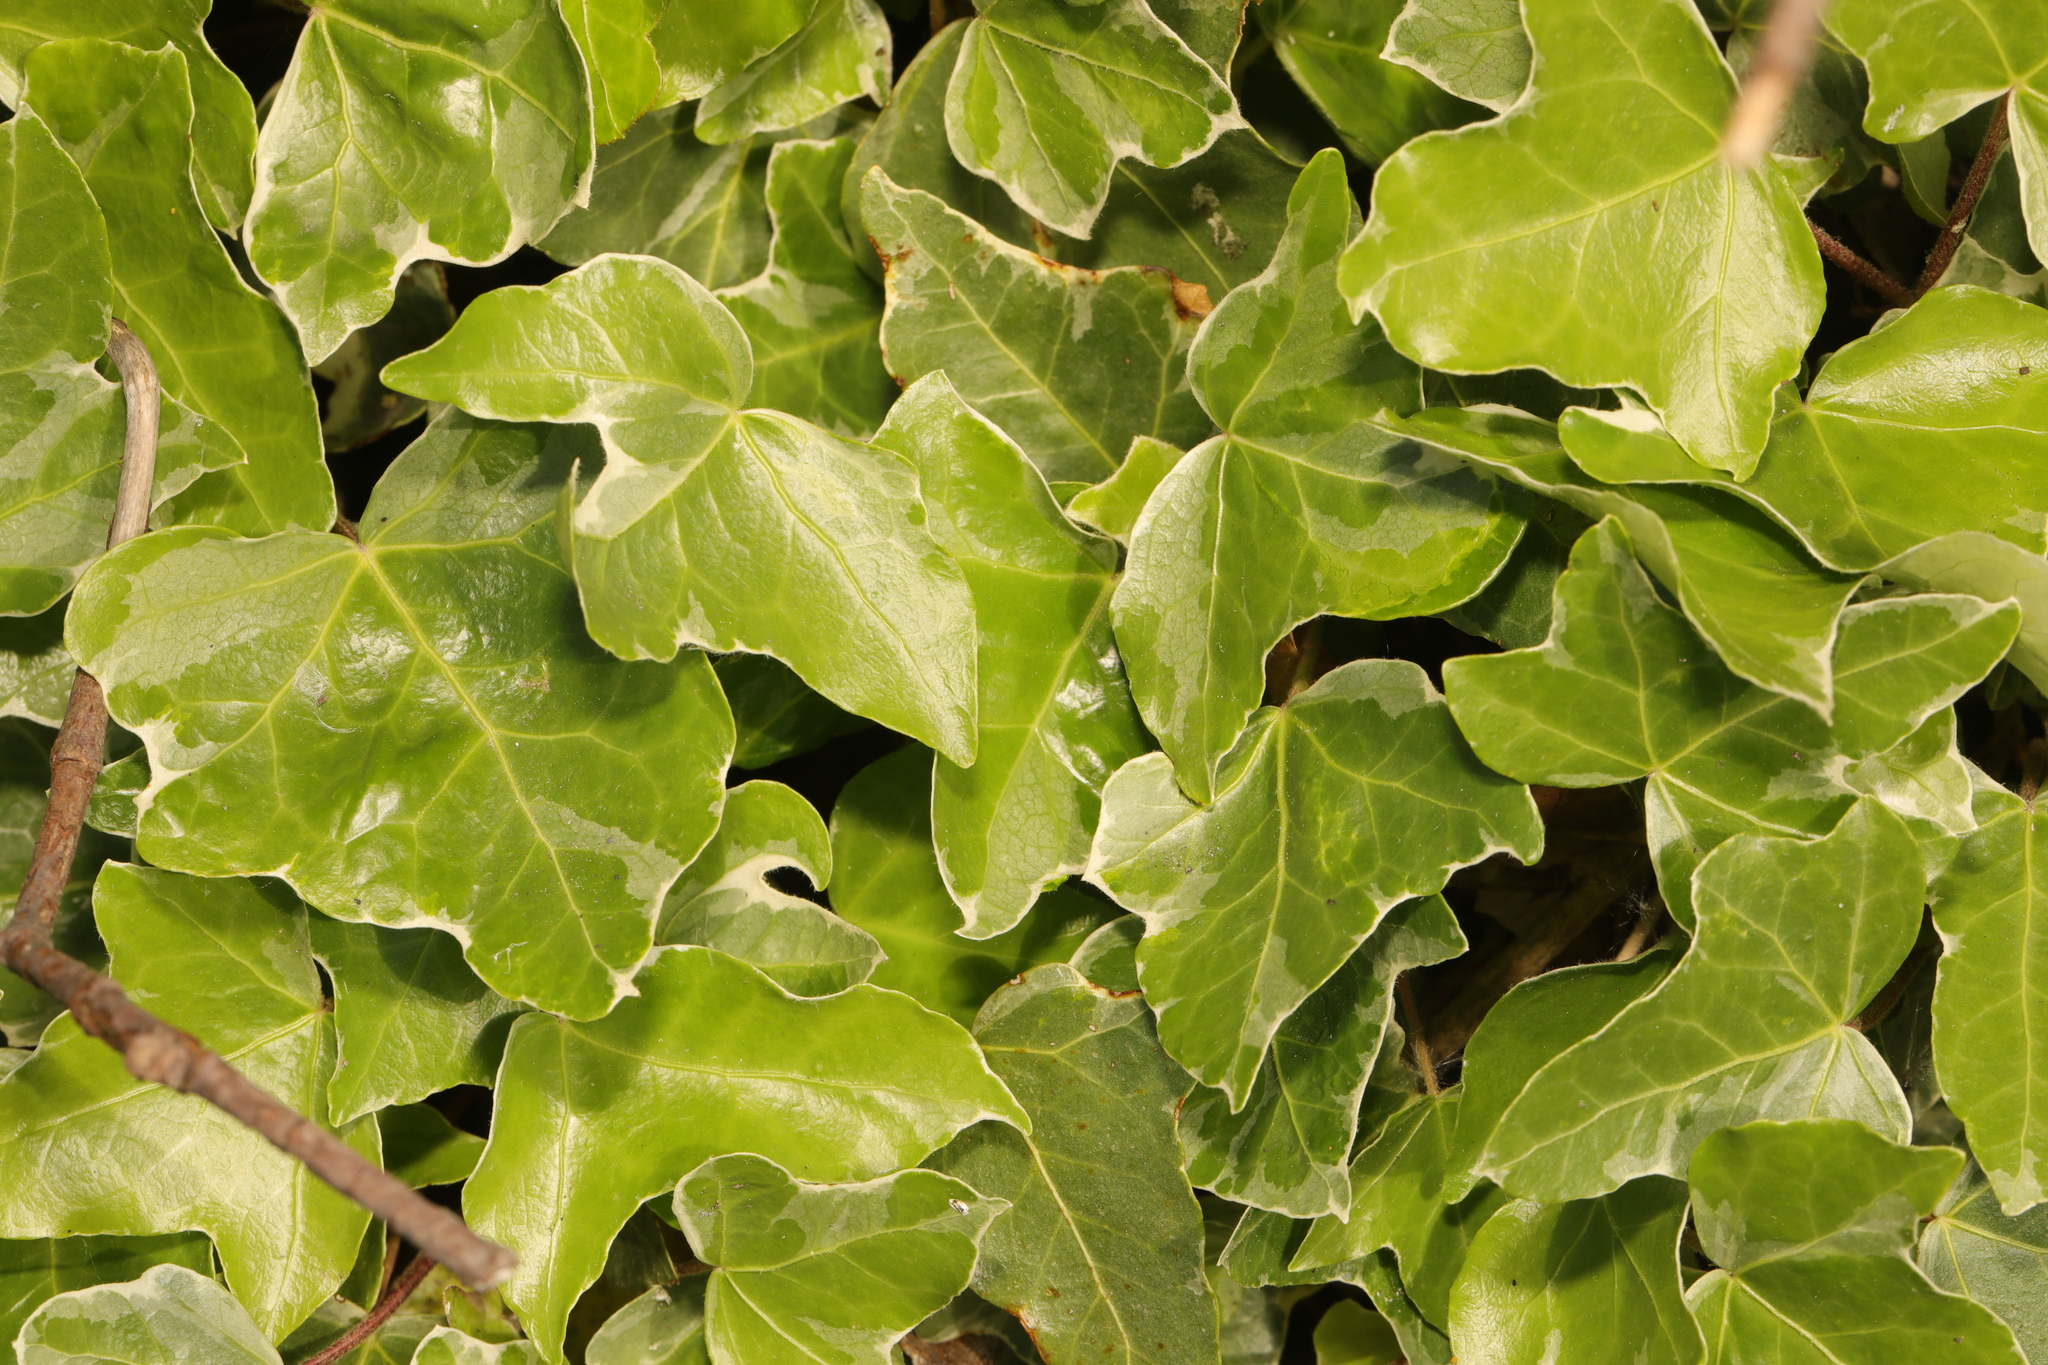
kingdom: Plantae
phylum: Tracheophyta
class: Magnoliopsida
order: Apiales
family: Araliaceae
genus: Hedera
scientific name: Hedera helix
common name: Ivy
